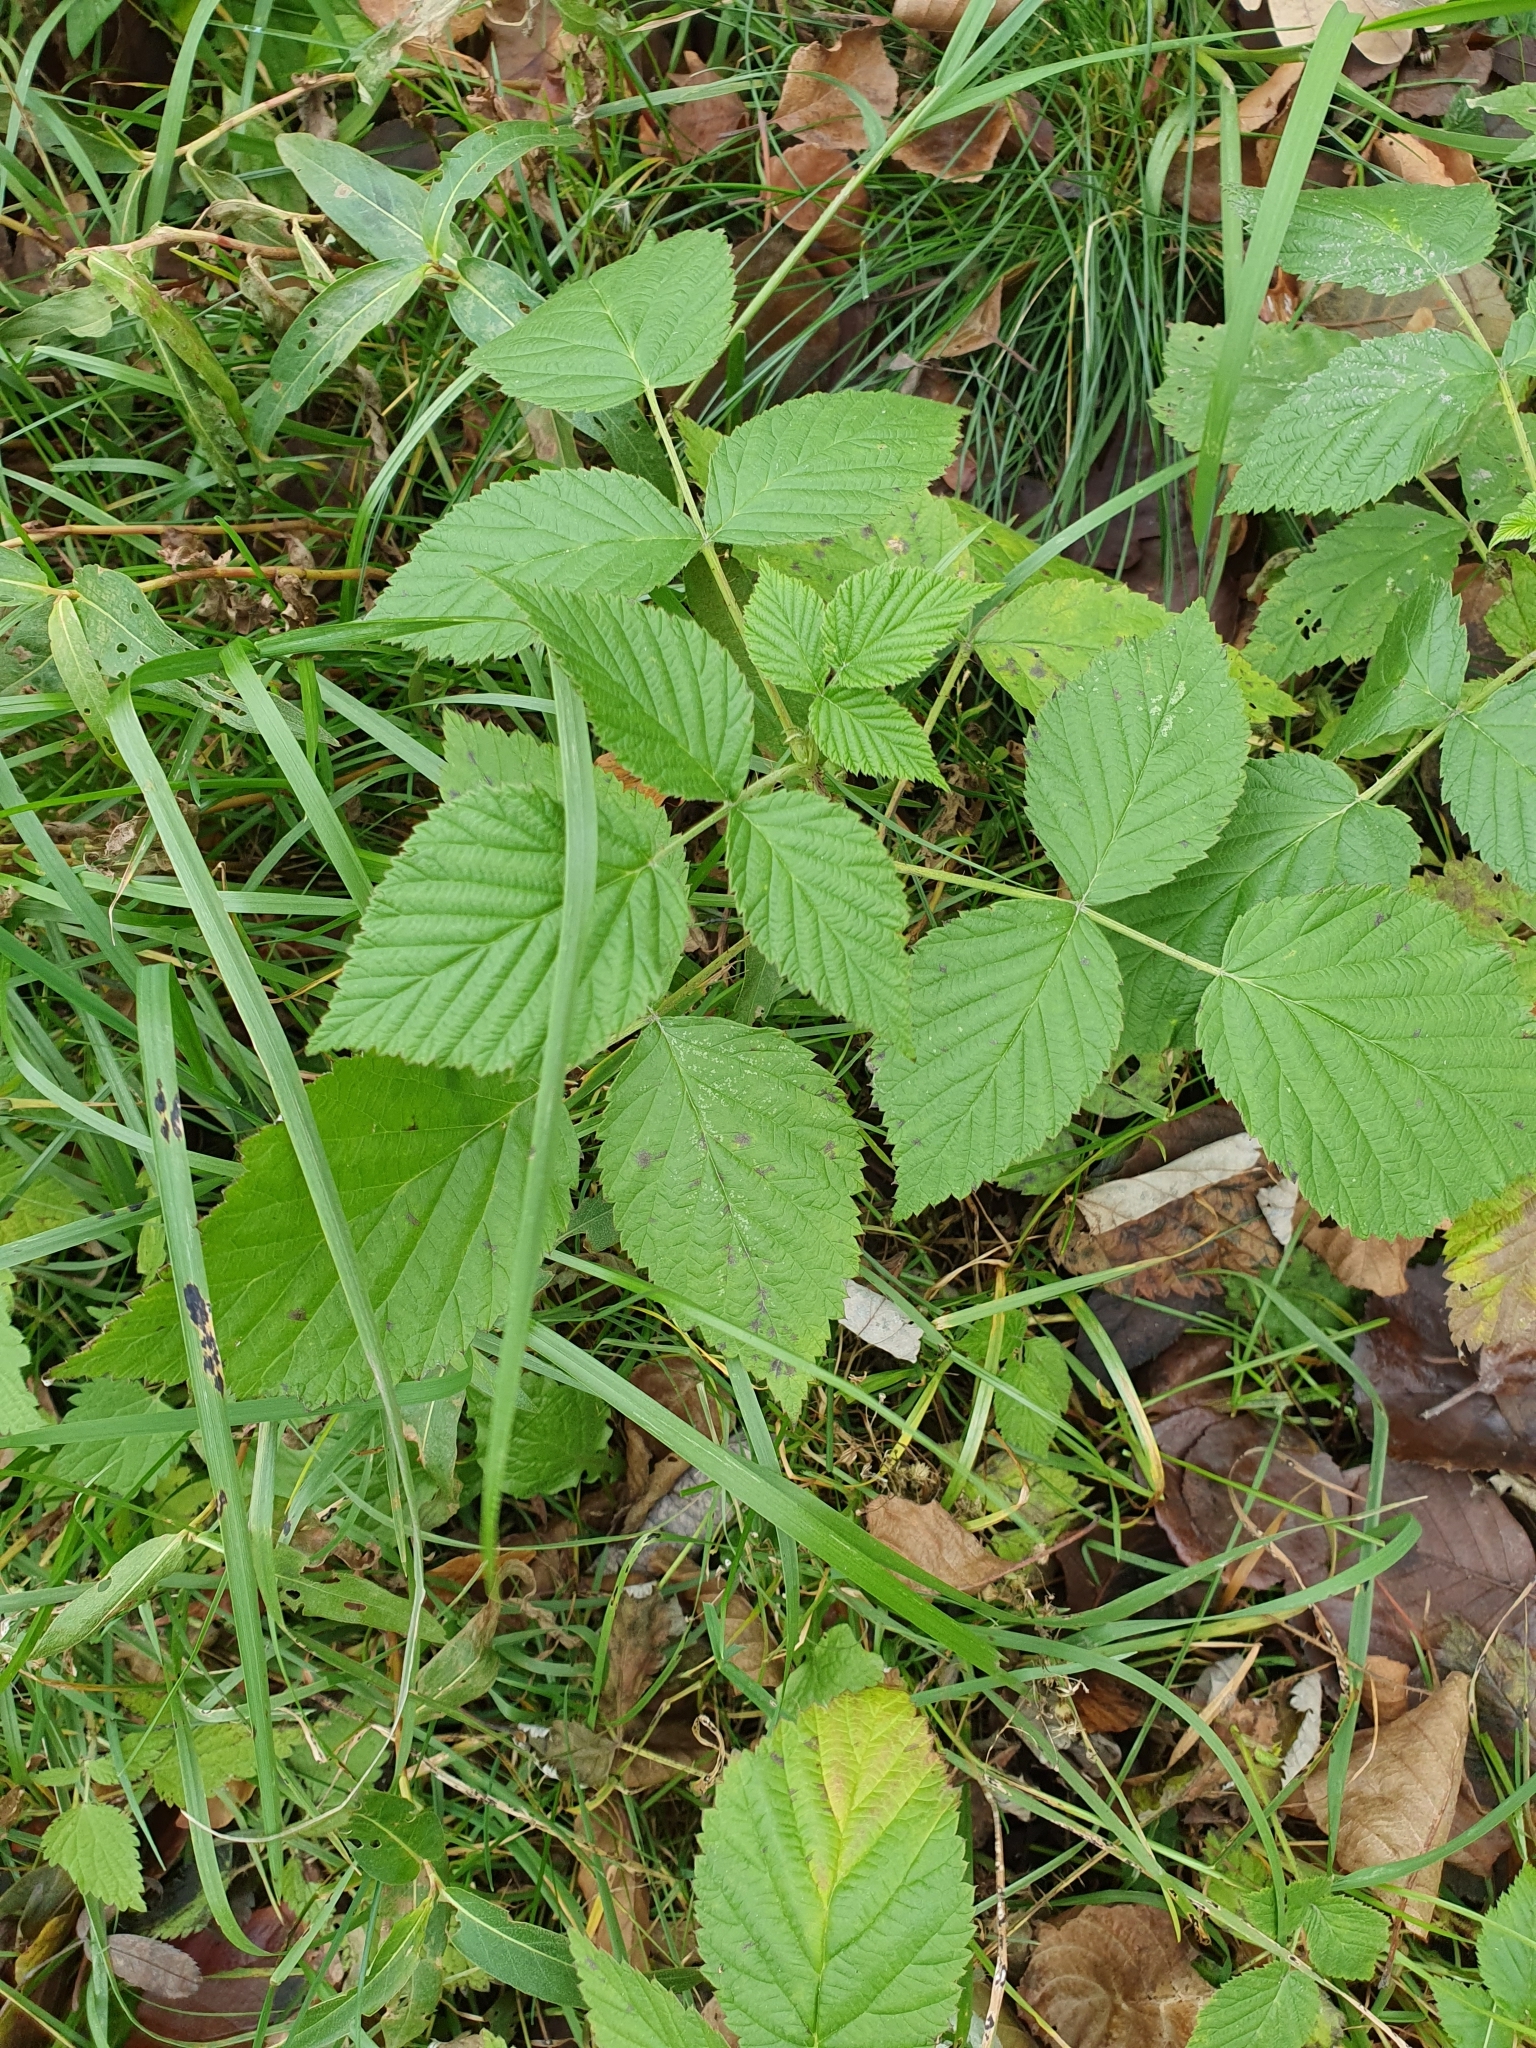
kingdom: Plantae
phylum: Tracheophyta
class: Magnoliopsida
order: Rosales
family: Rosaceae
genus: Rubus
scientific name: Rubus idaeus
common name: Raspberry
